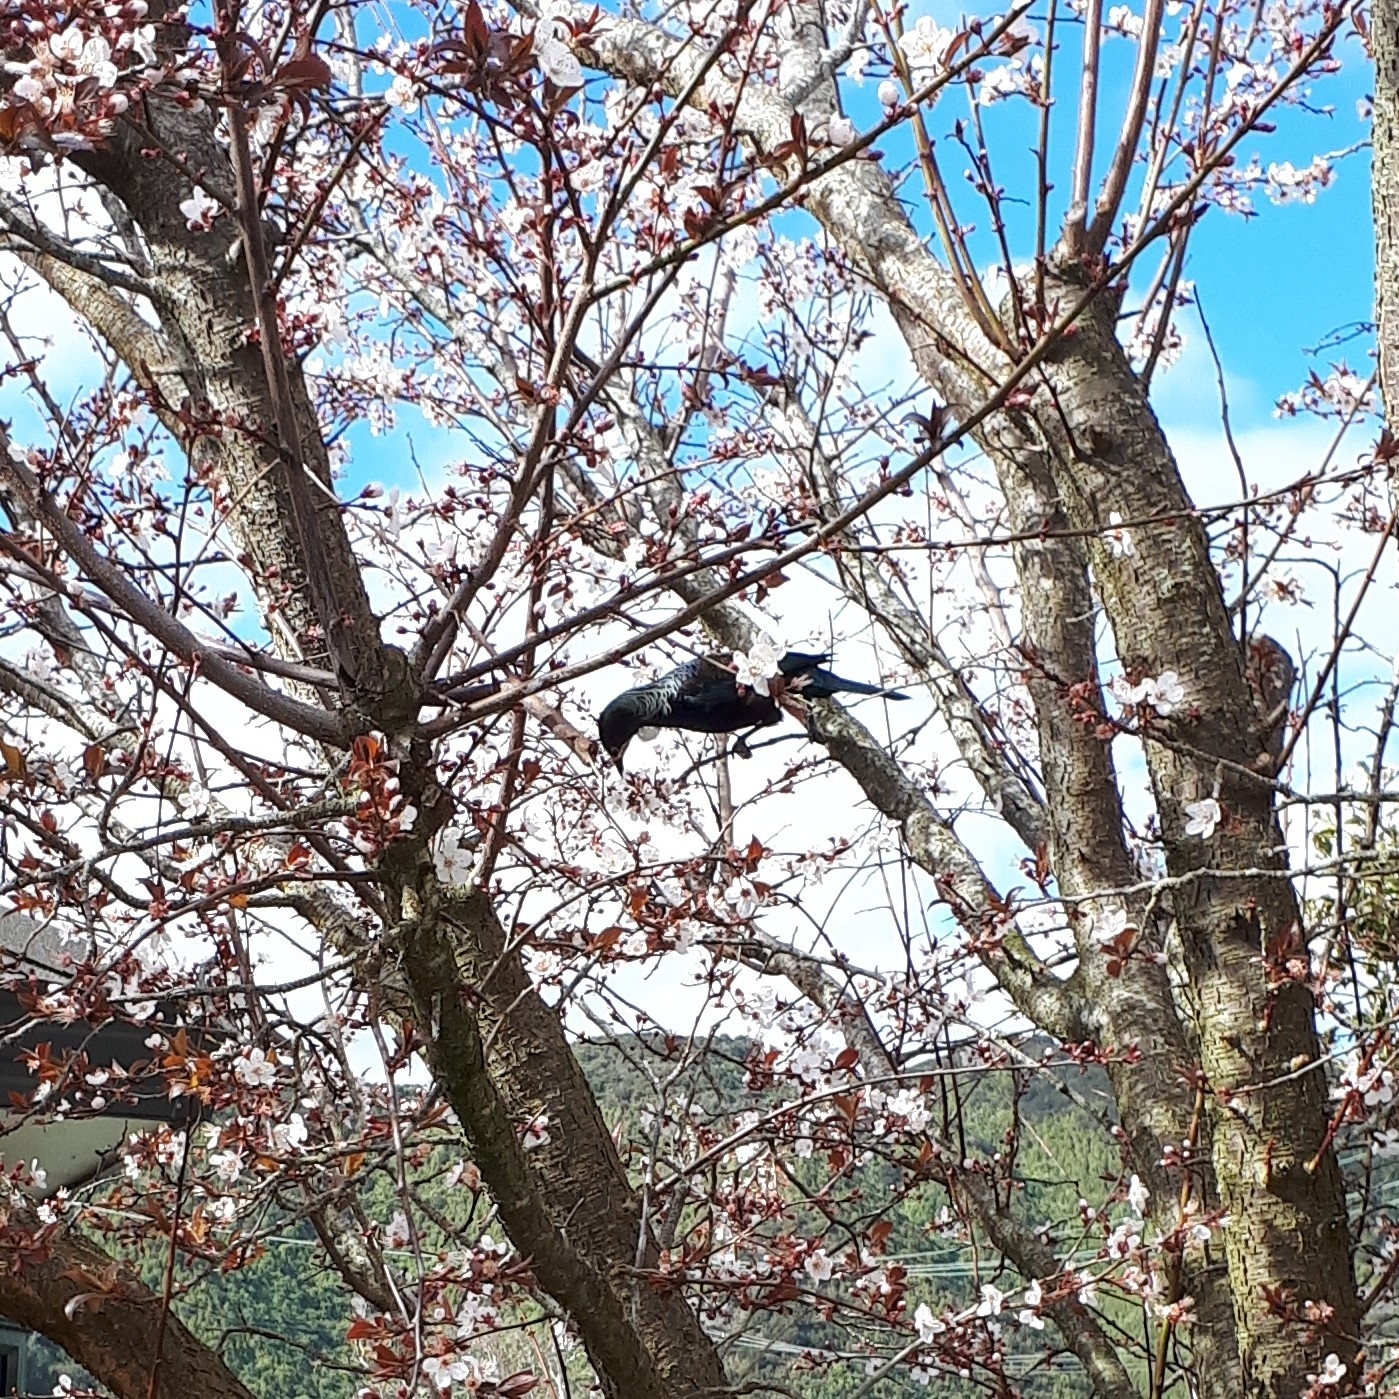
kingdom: Animalia
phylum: Chordata
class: Aves
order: Passeriformes
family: Meliphagidae
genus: Prosthemadera
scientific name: Prosthemadera novaeseelandiae
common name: Tui
